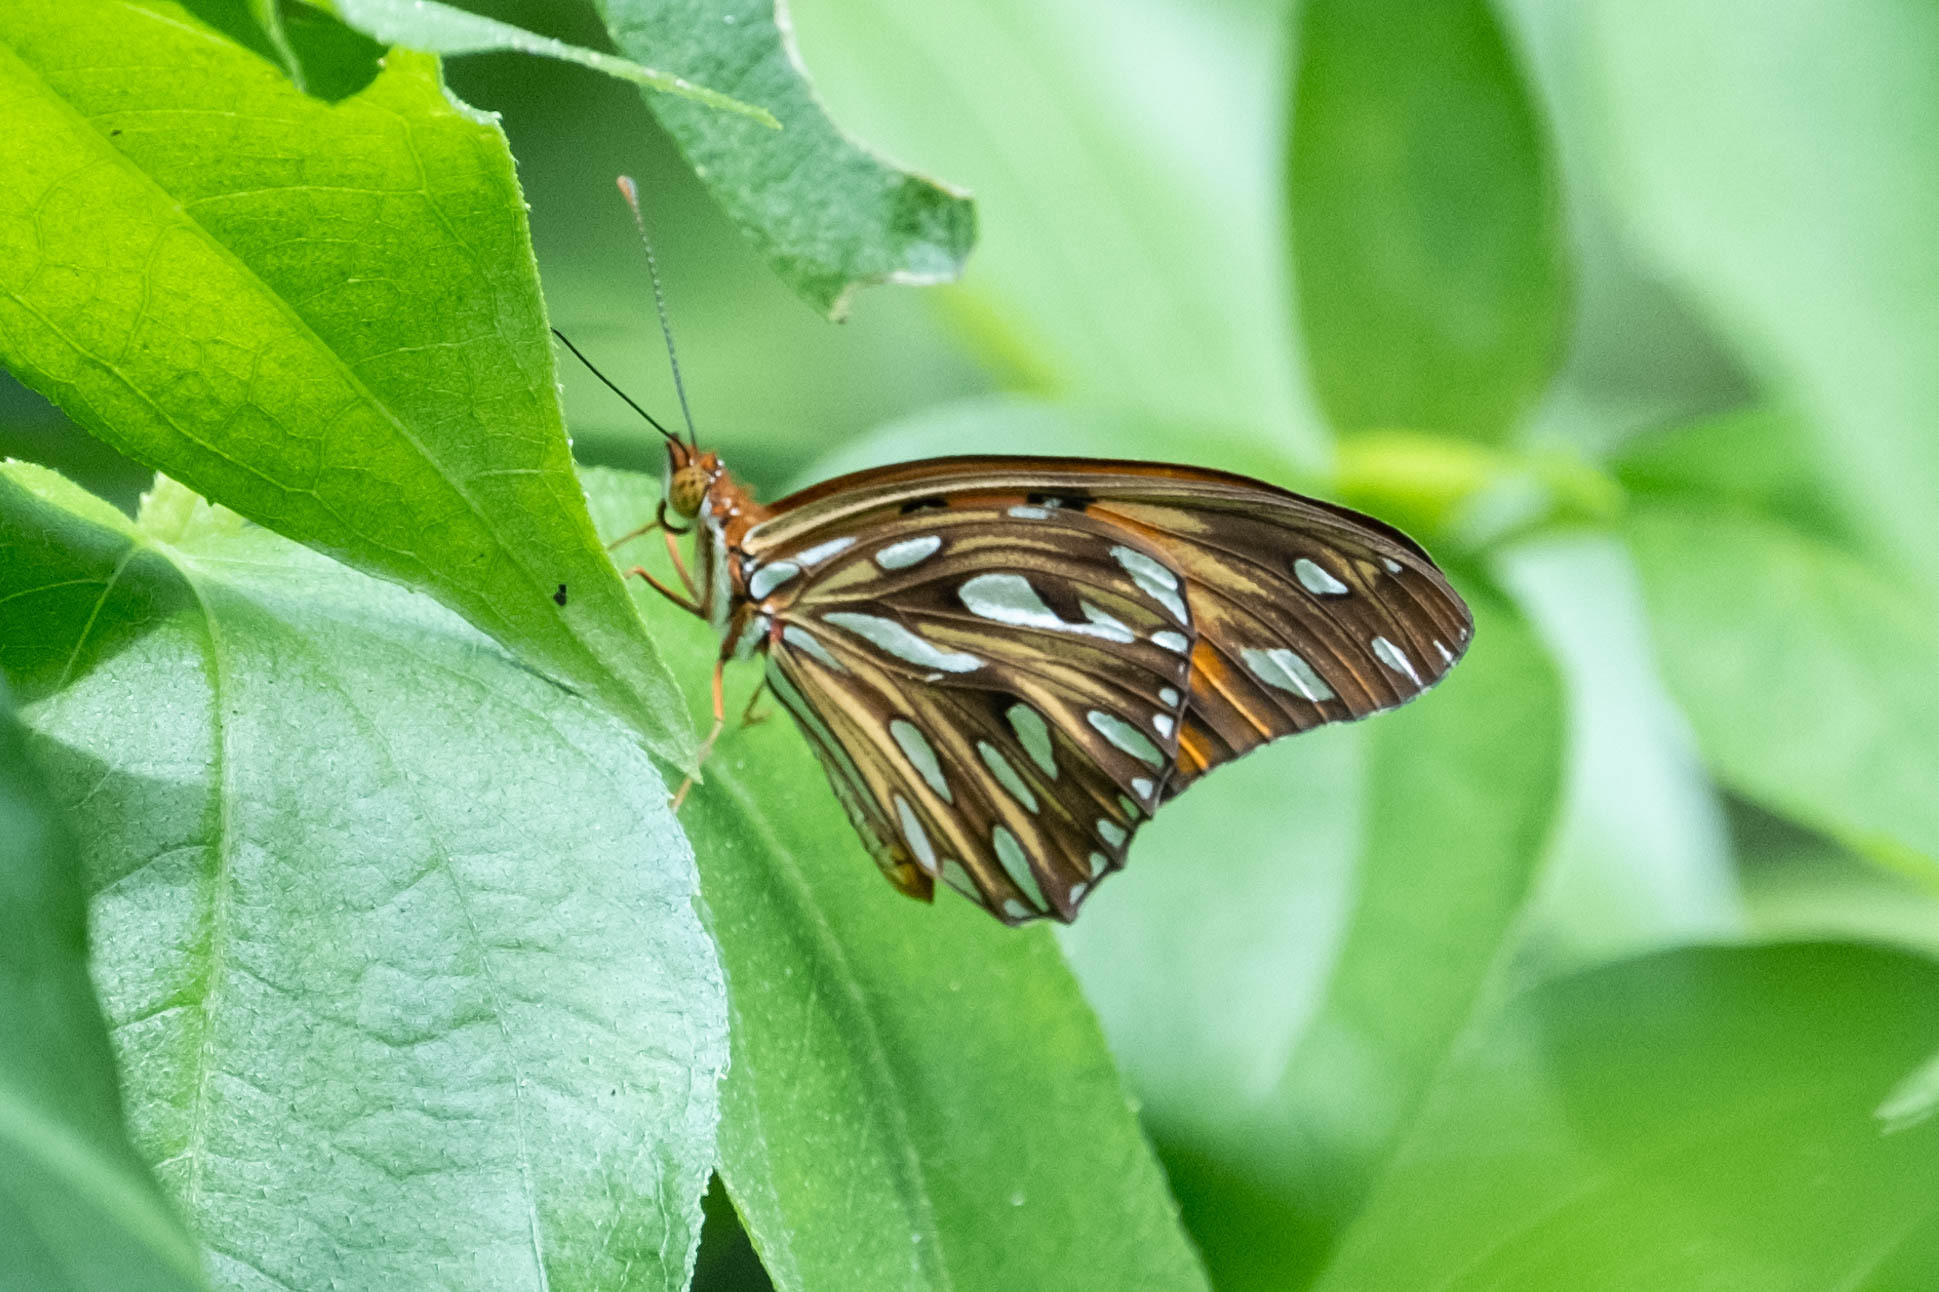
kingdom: Animalia
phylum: Arthropoda
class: Insecta
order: Lepidoptera
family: Nymphalidae
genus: Dione
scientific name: Dione vanillae
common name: Gulf fritillary
